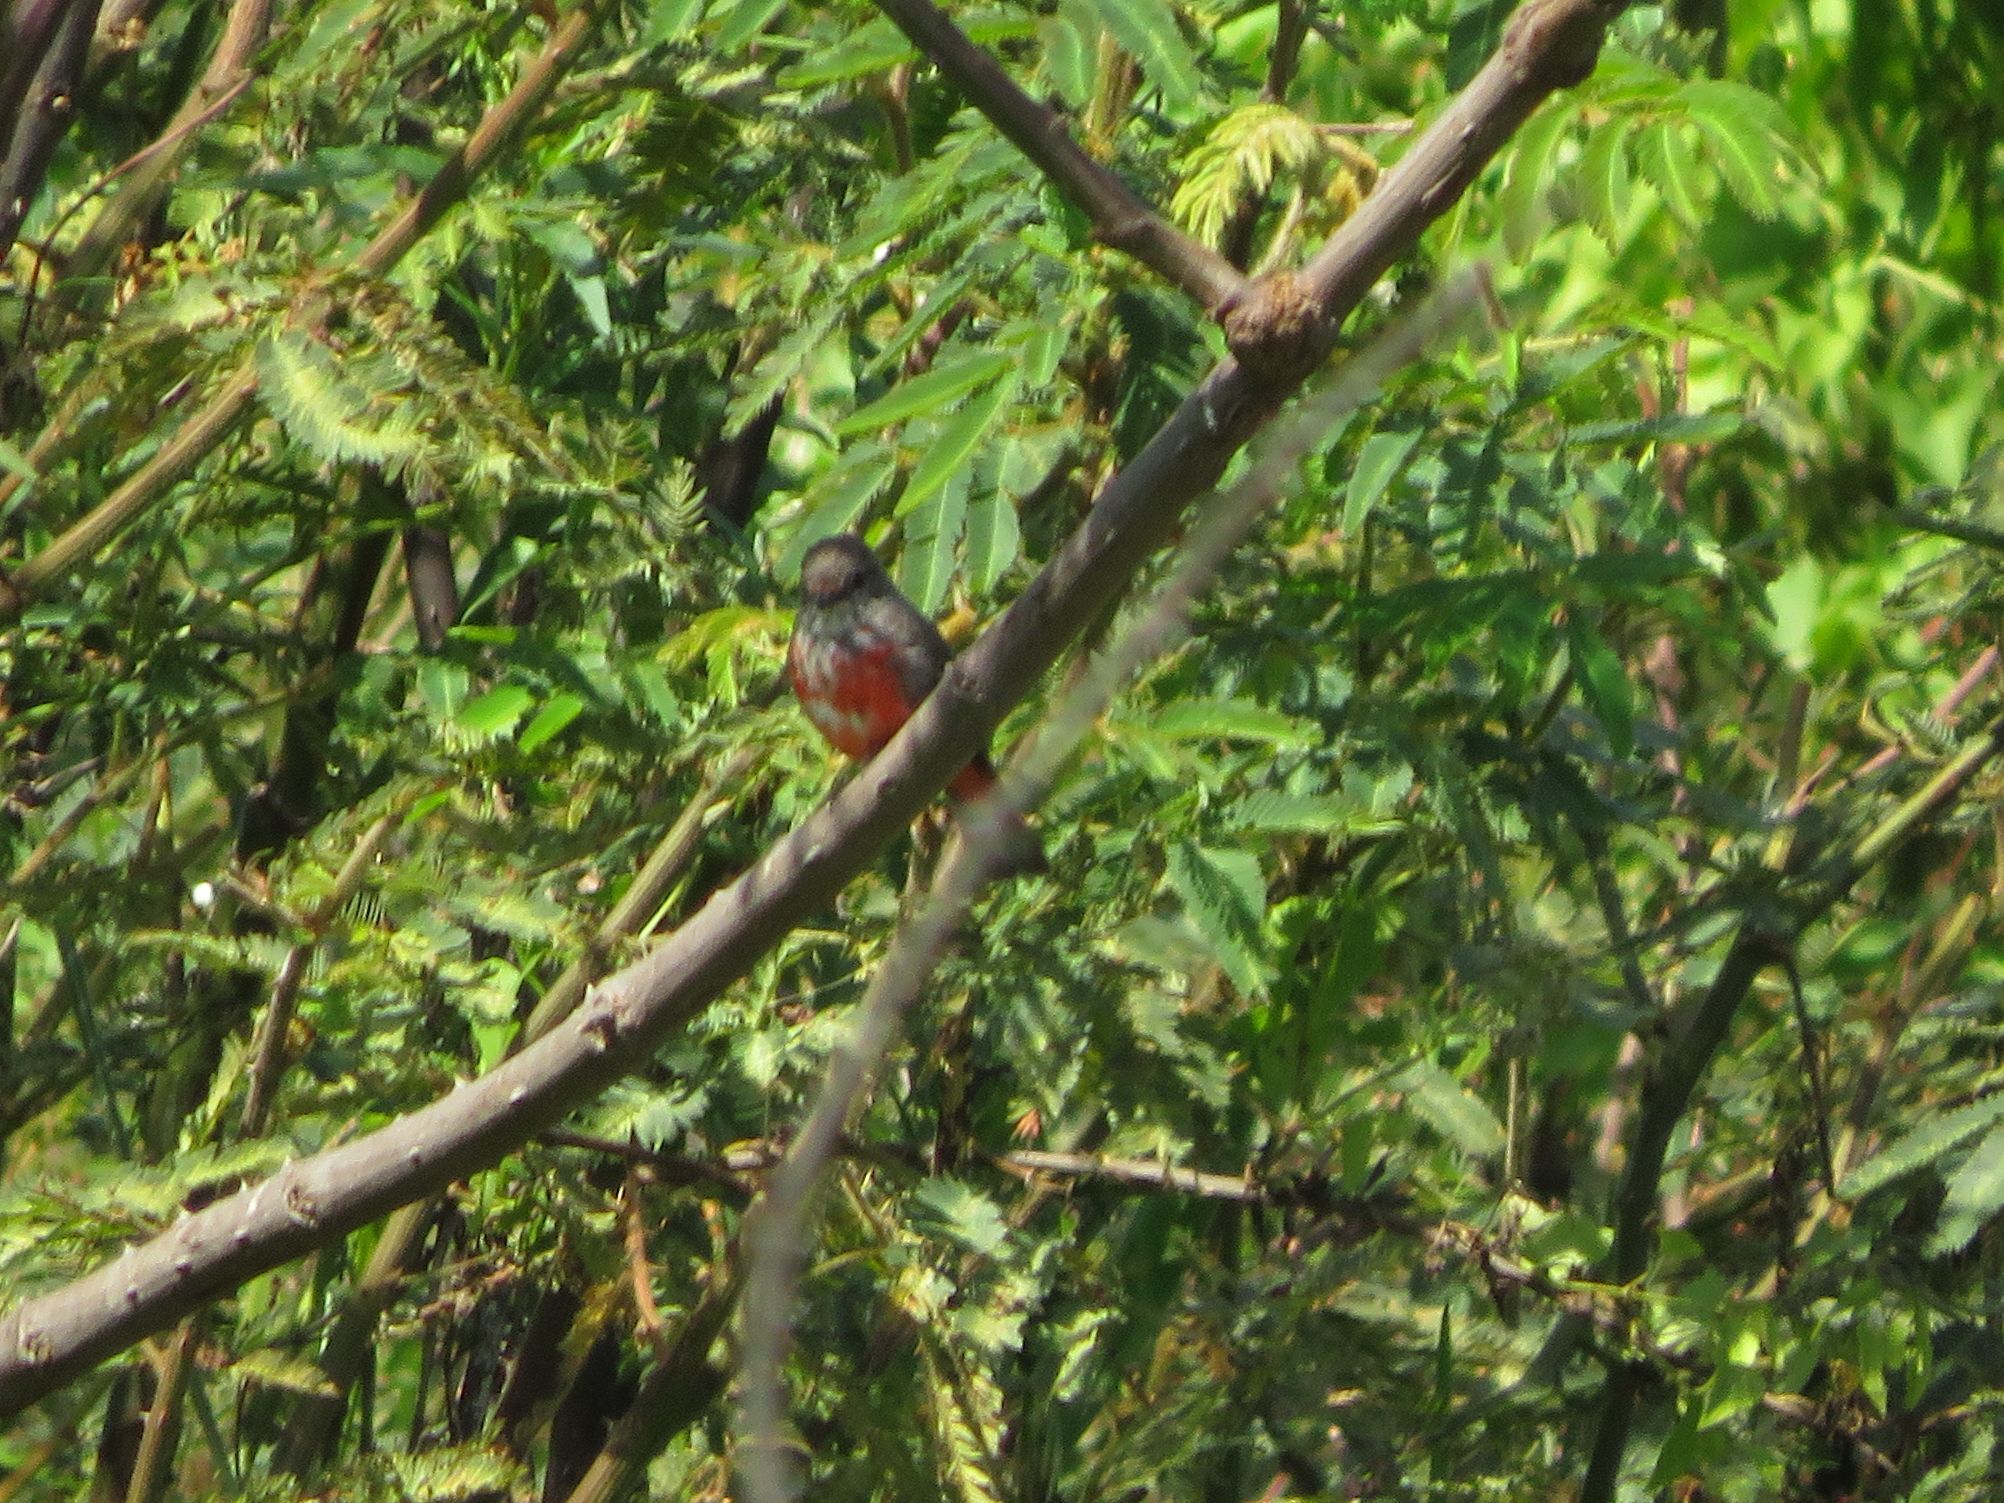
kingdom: Animalia
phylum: Chordata
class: Aves
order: Passeriformes
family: Tyrannidae
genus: Pyrocephalus
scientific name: Pyrocephalus rubinus
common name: Vermilion flycatcher
